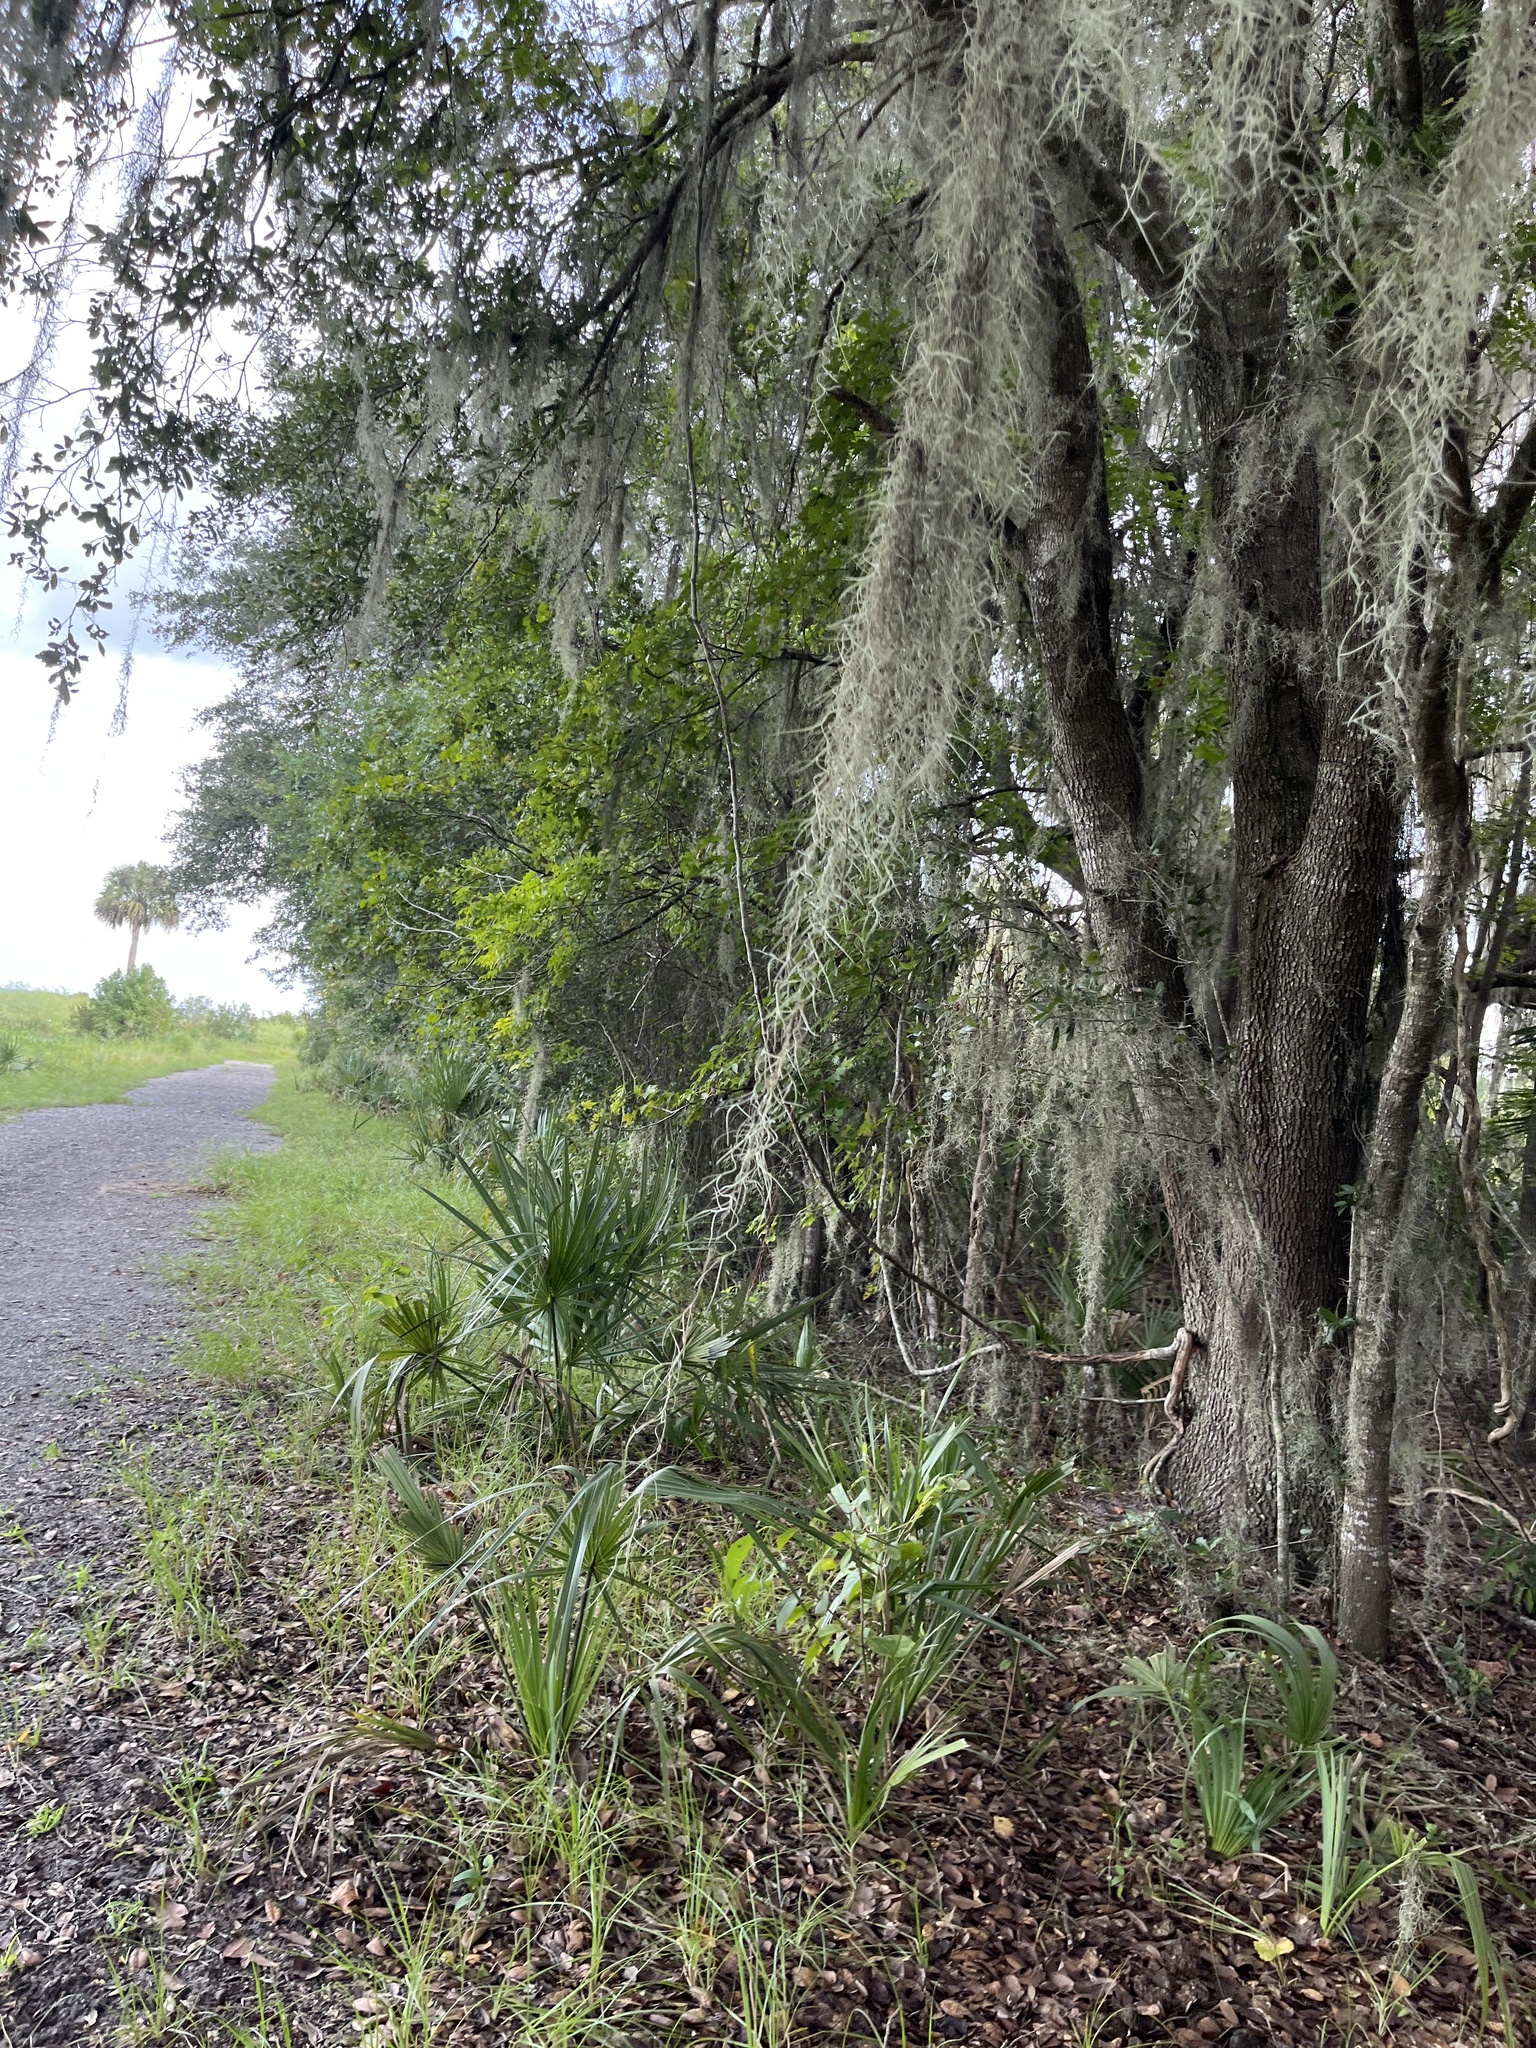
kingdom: Plantae
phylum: Tracheophyta
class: Liliopsida
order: Poales
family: Bromeliaceae
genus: Tillandsia
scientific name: Tillandsia usneoides
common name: Spanish moss
